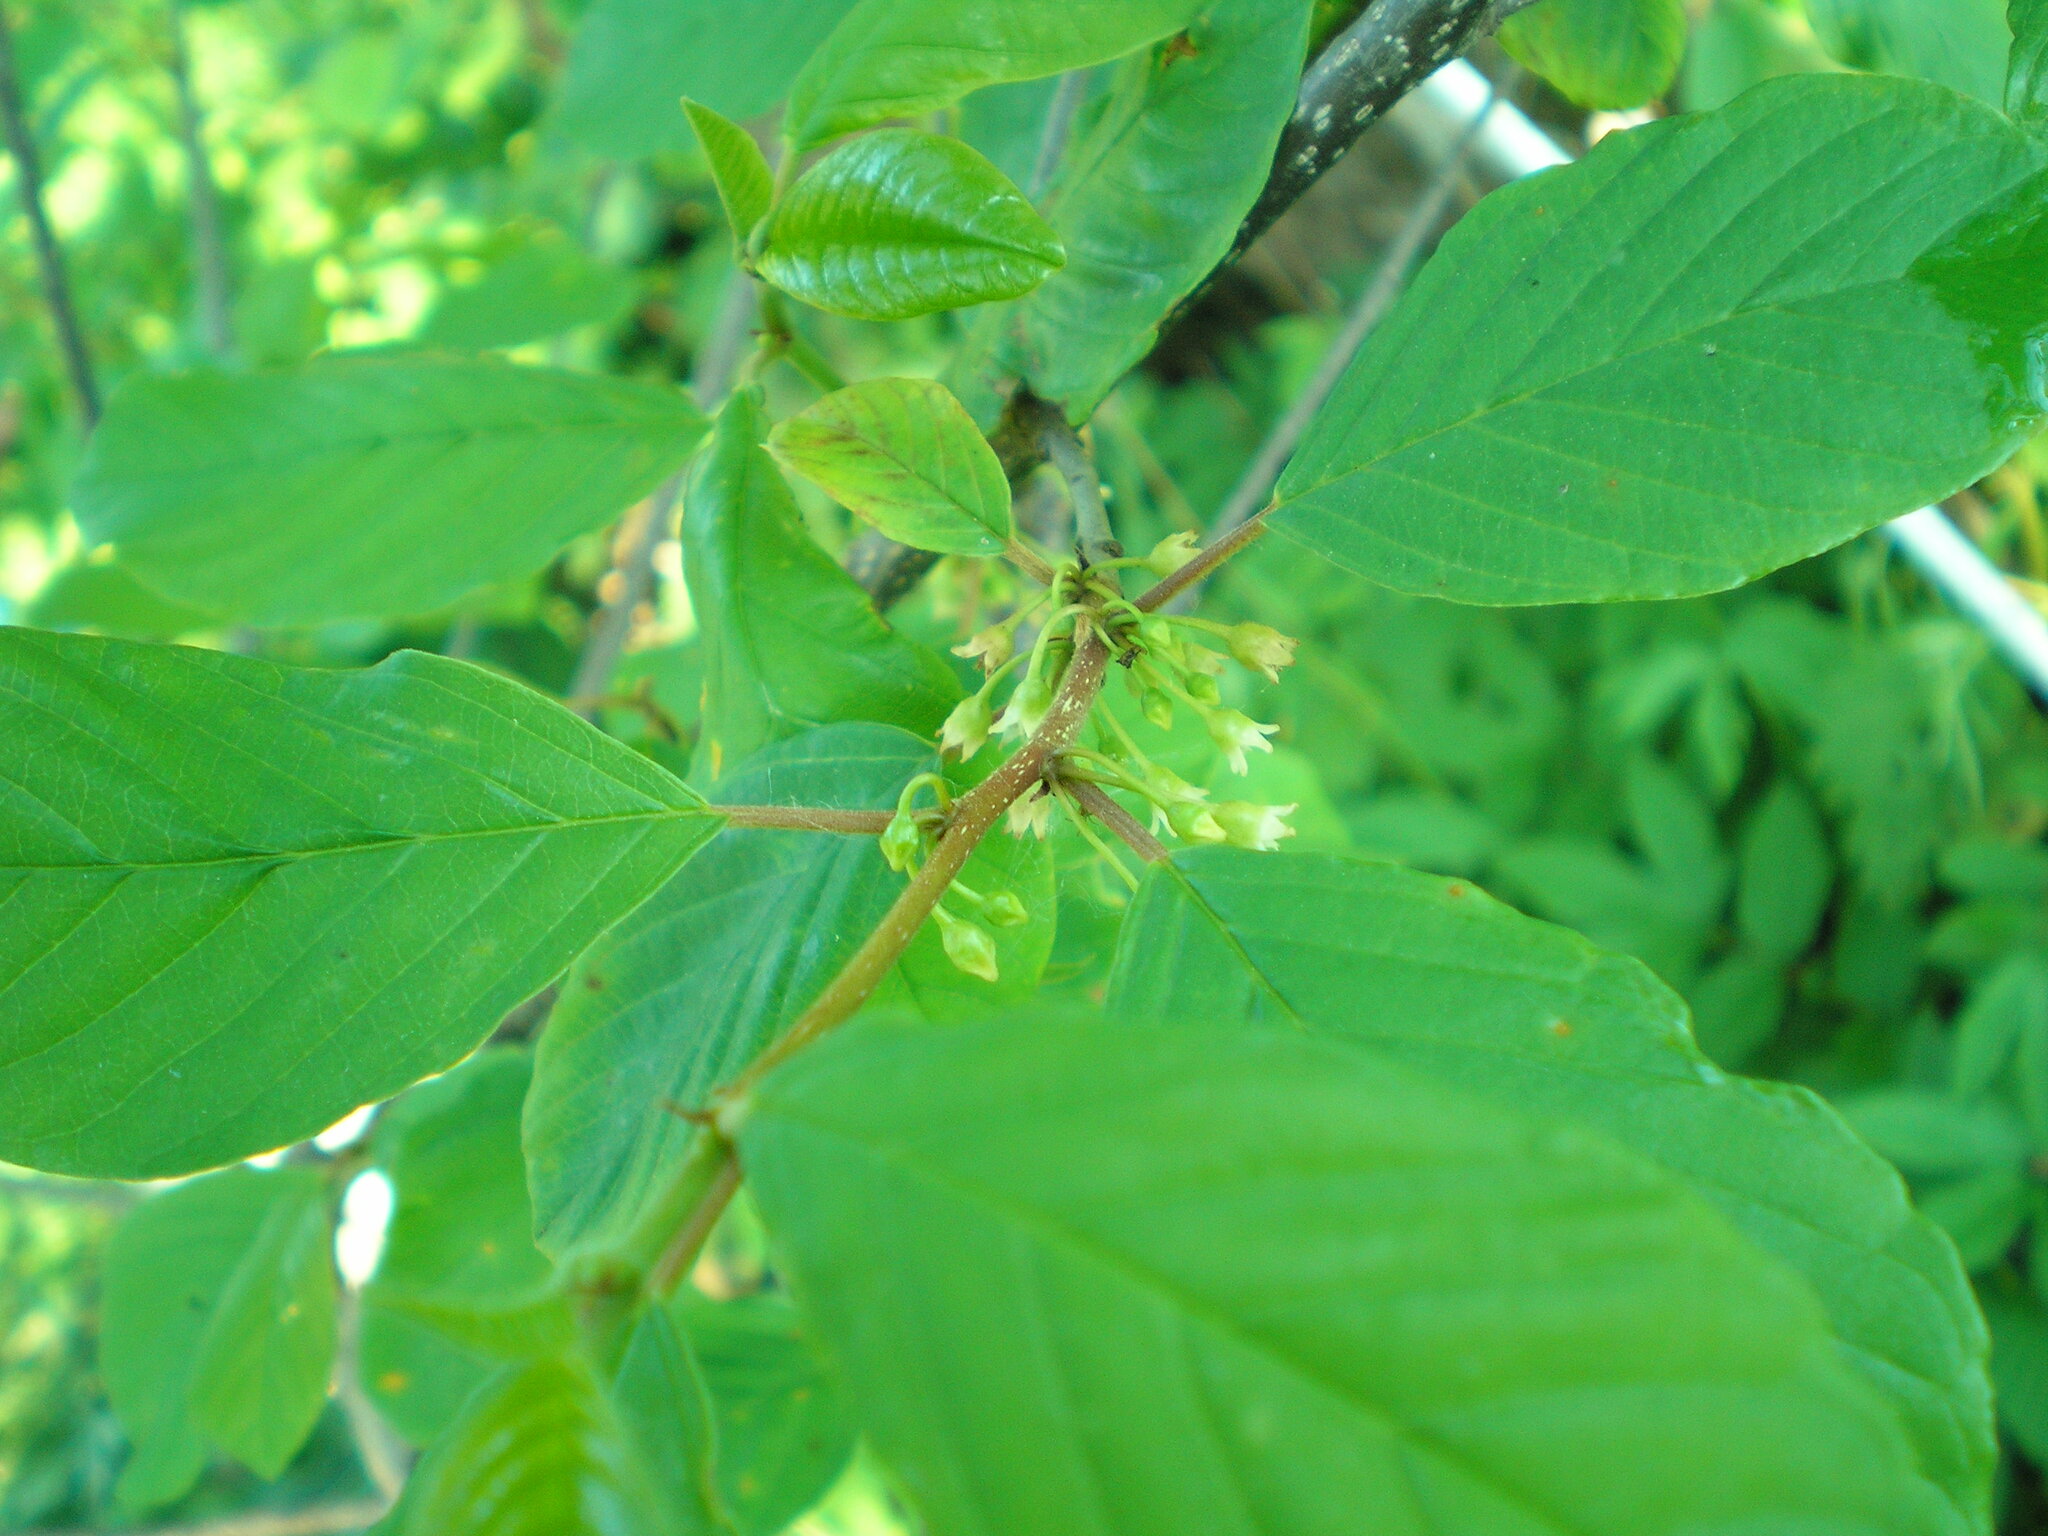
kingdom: Plantae
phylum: Tracheophyta
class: Magnoliopsida
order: Rosales
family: Rhamnaceae
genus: Frangula
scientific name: Frangula alnus
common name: Alder buckthorn
